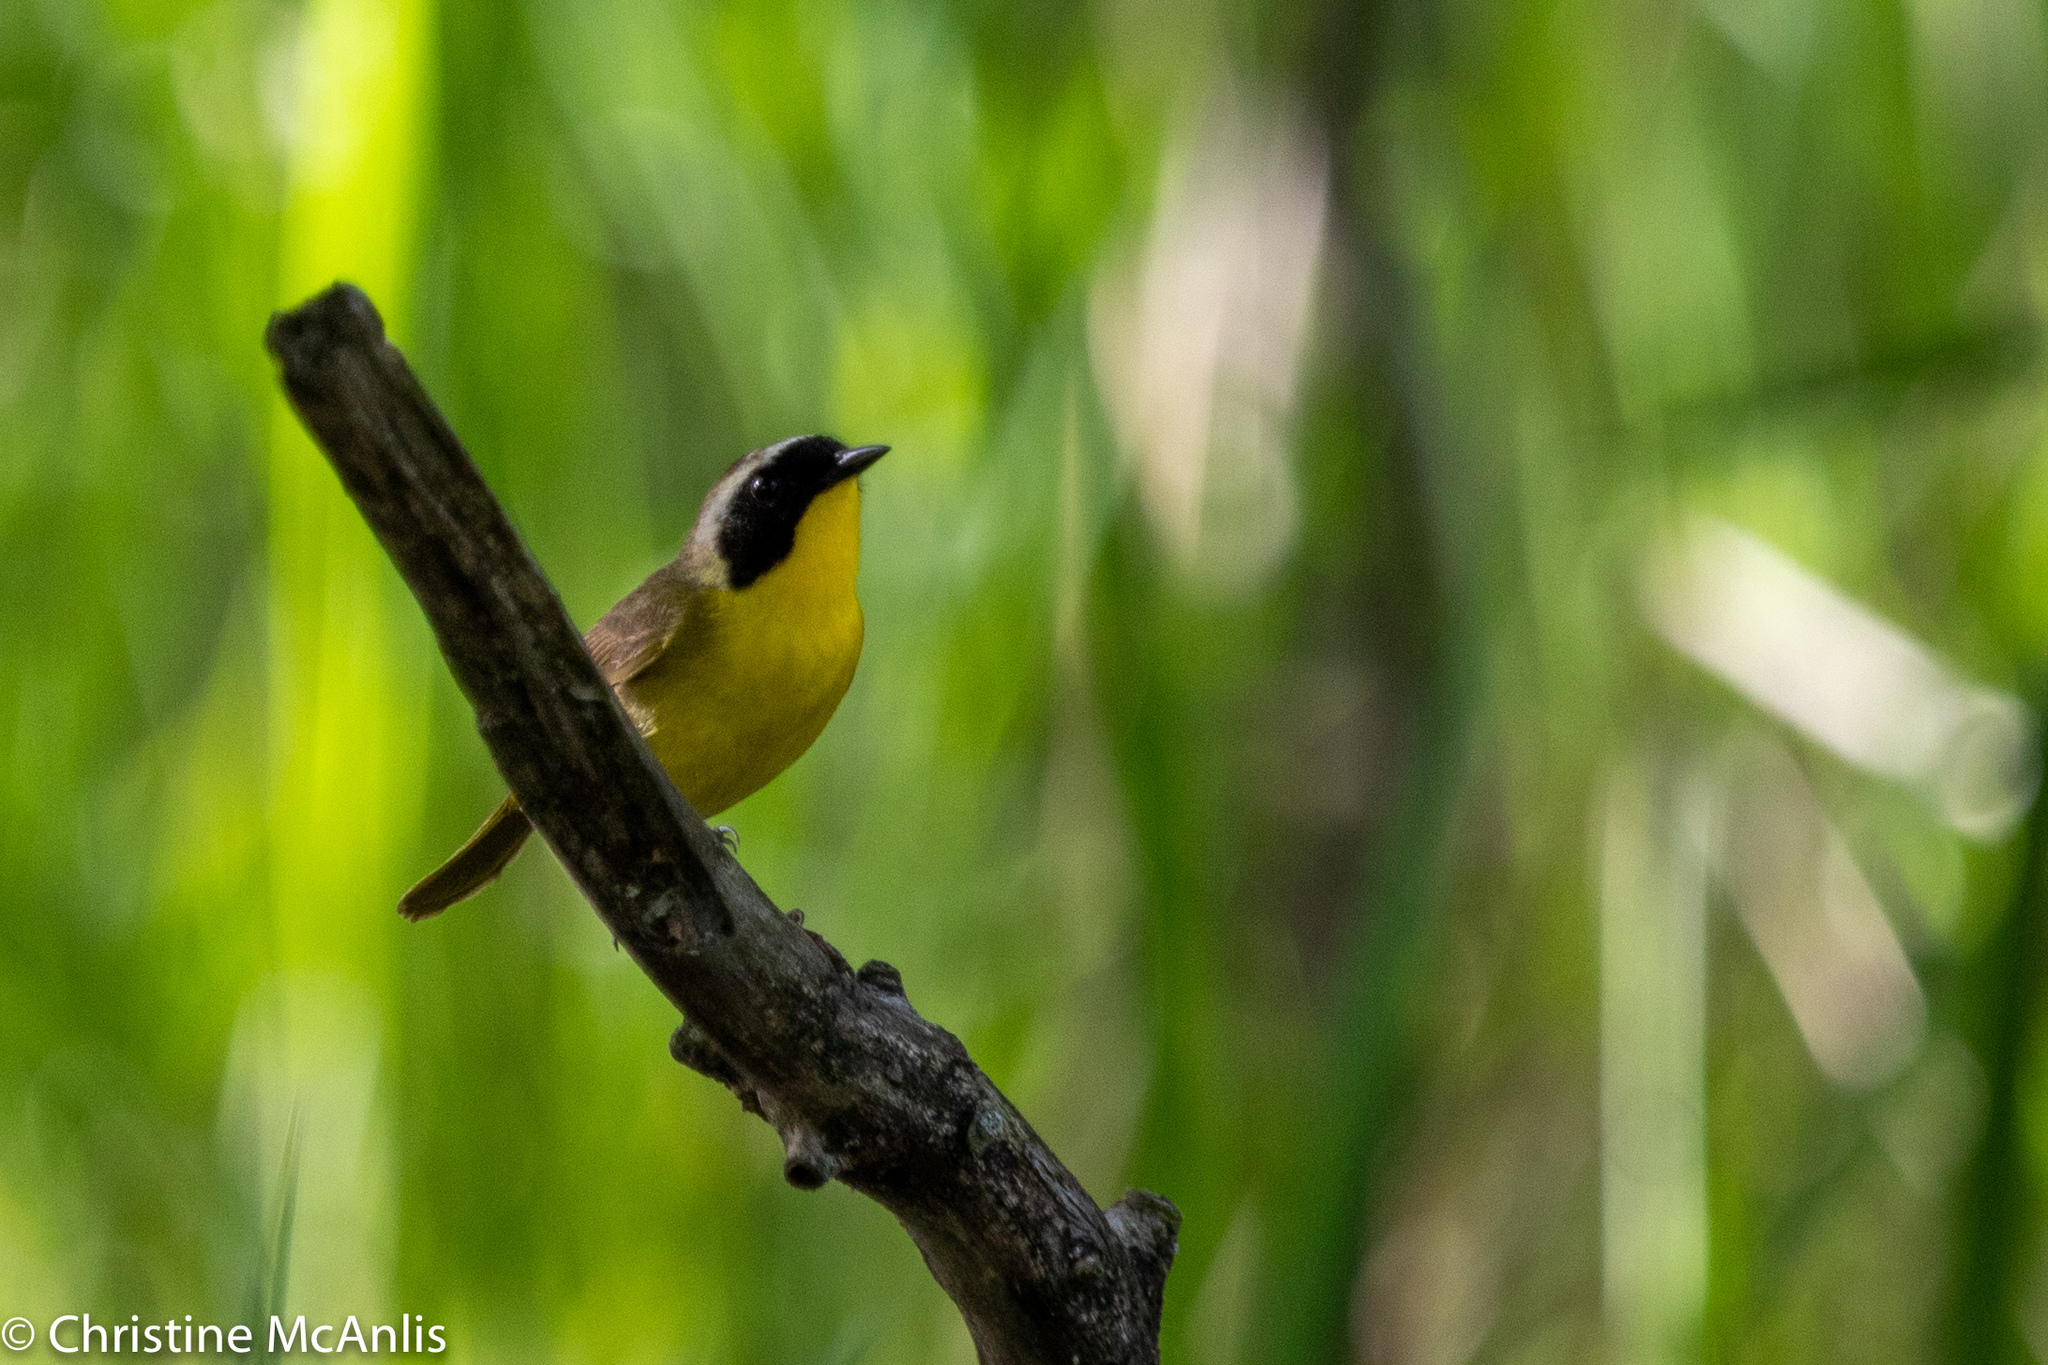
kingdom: Animalia
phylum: Chordata
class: Aves
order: Passeriformes
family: Parulidae
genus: Geothlypis
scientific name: Geothlypis trichas
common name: Common yellowthroat
